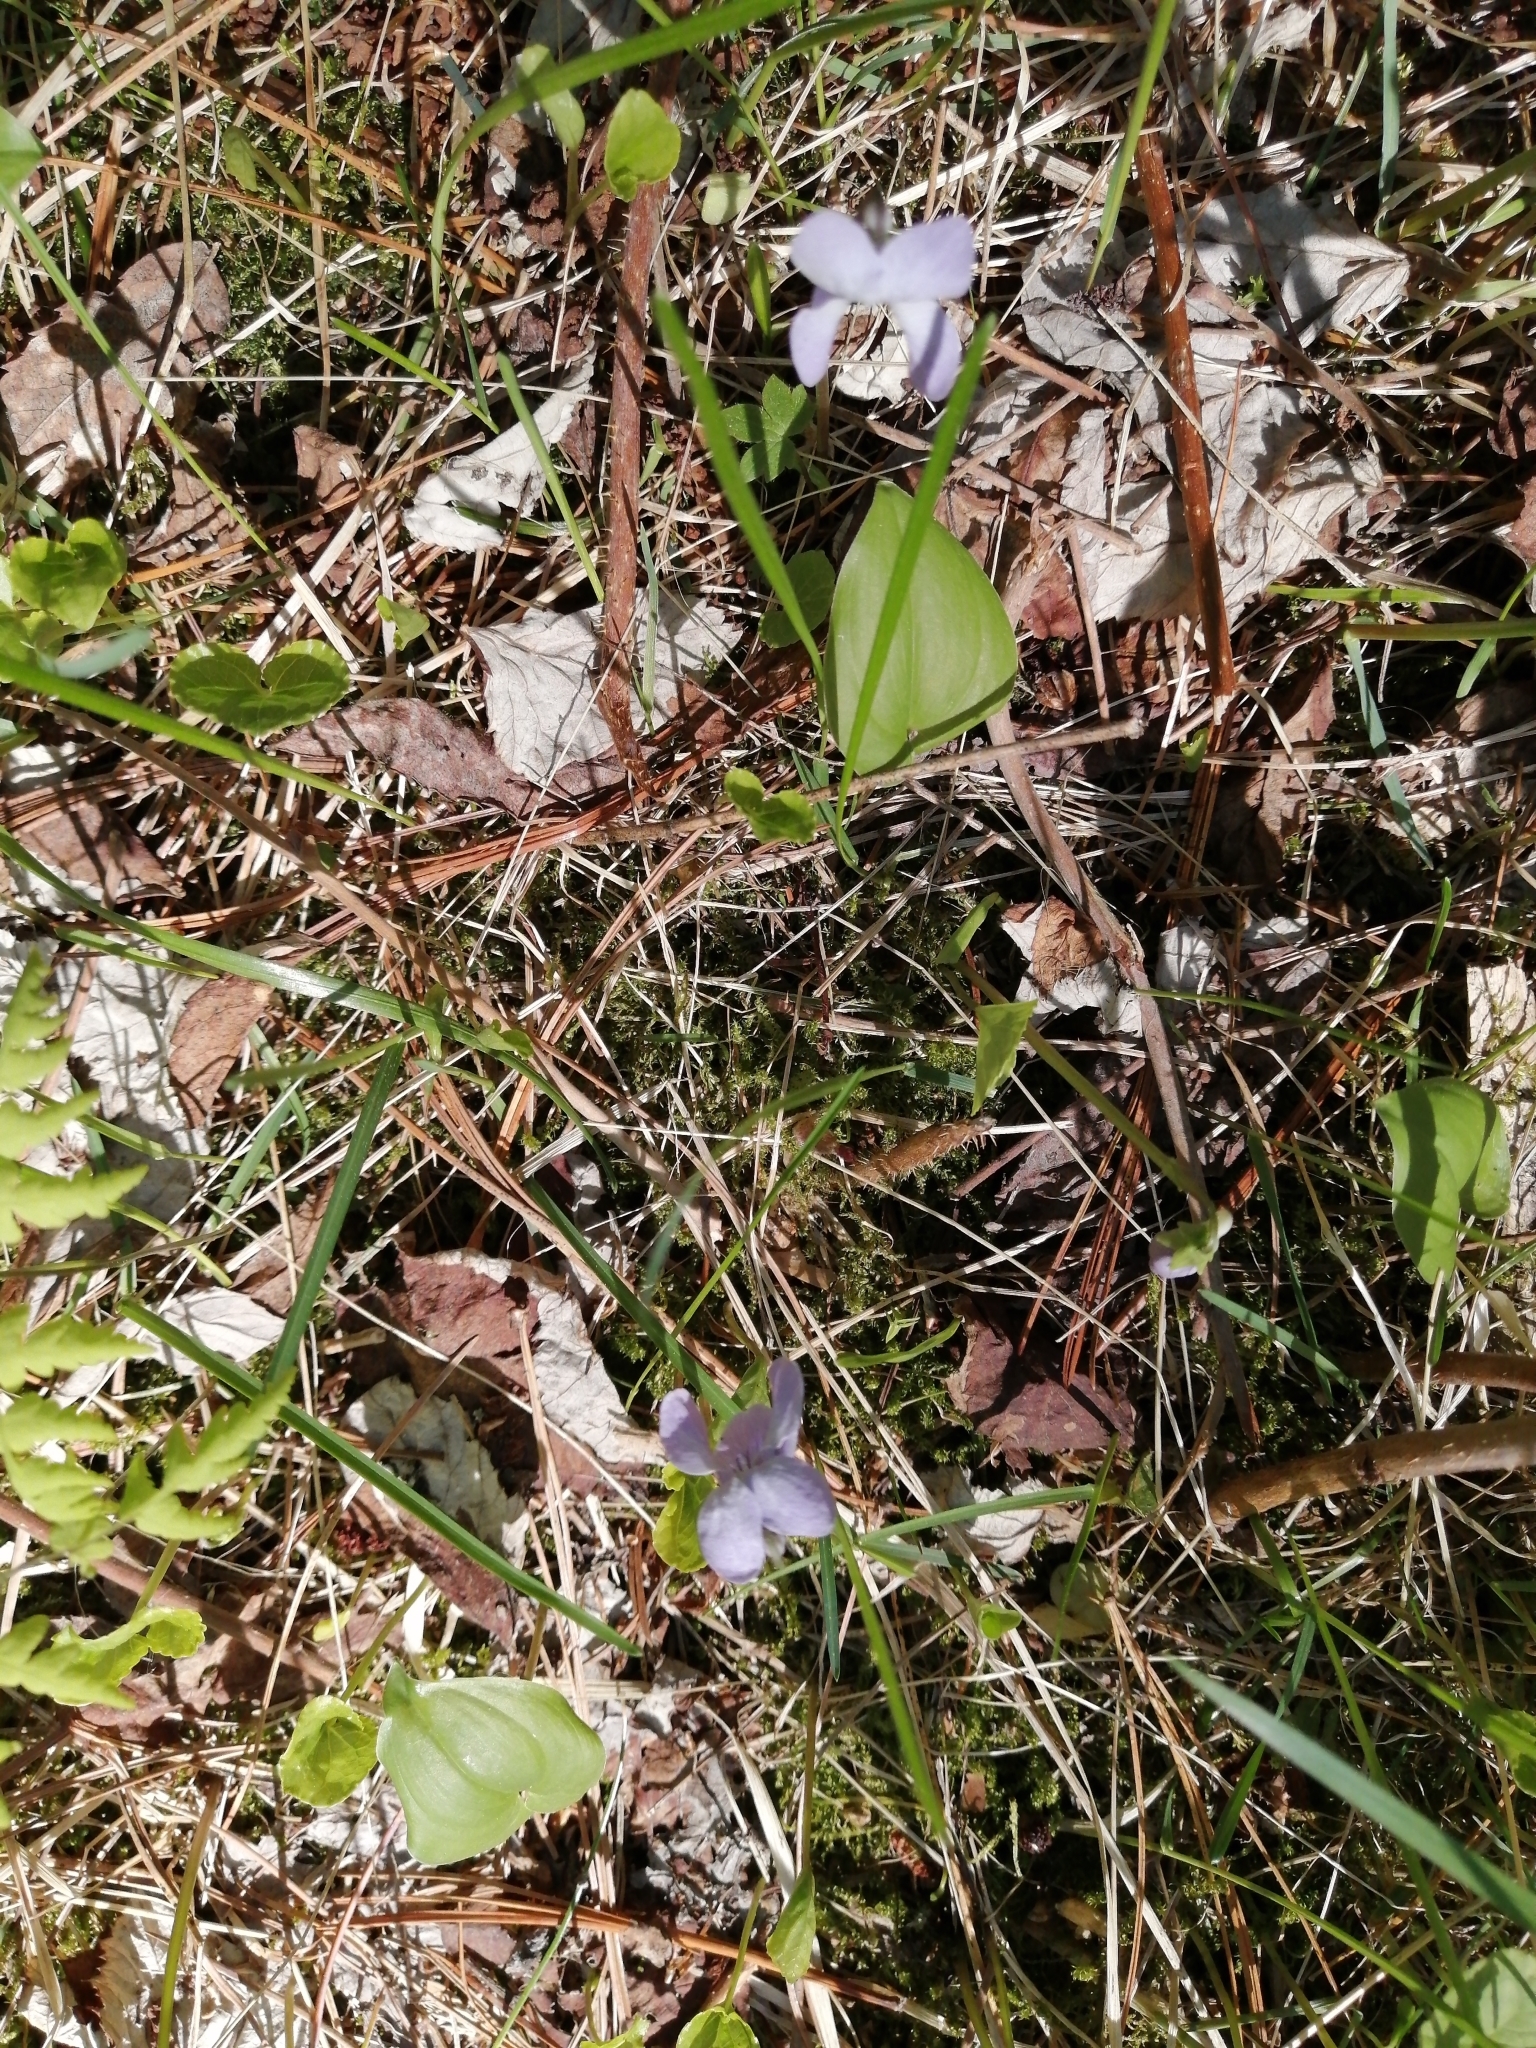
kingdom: Plantae
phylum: Tracheophyta
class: Magnoliopsida
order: Malpighiales
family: Violaceae
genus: Viola
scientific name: Viola selkirkii
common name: Selkirk's violet
